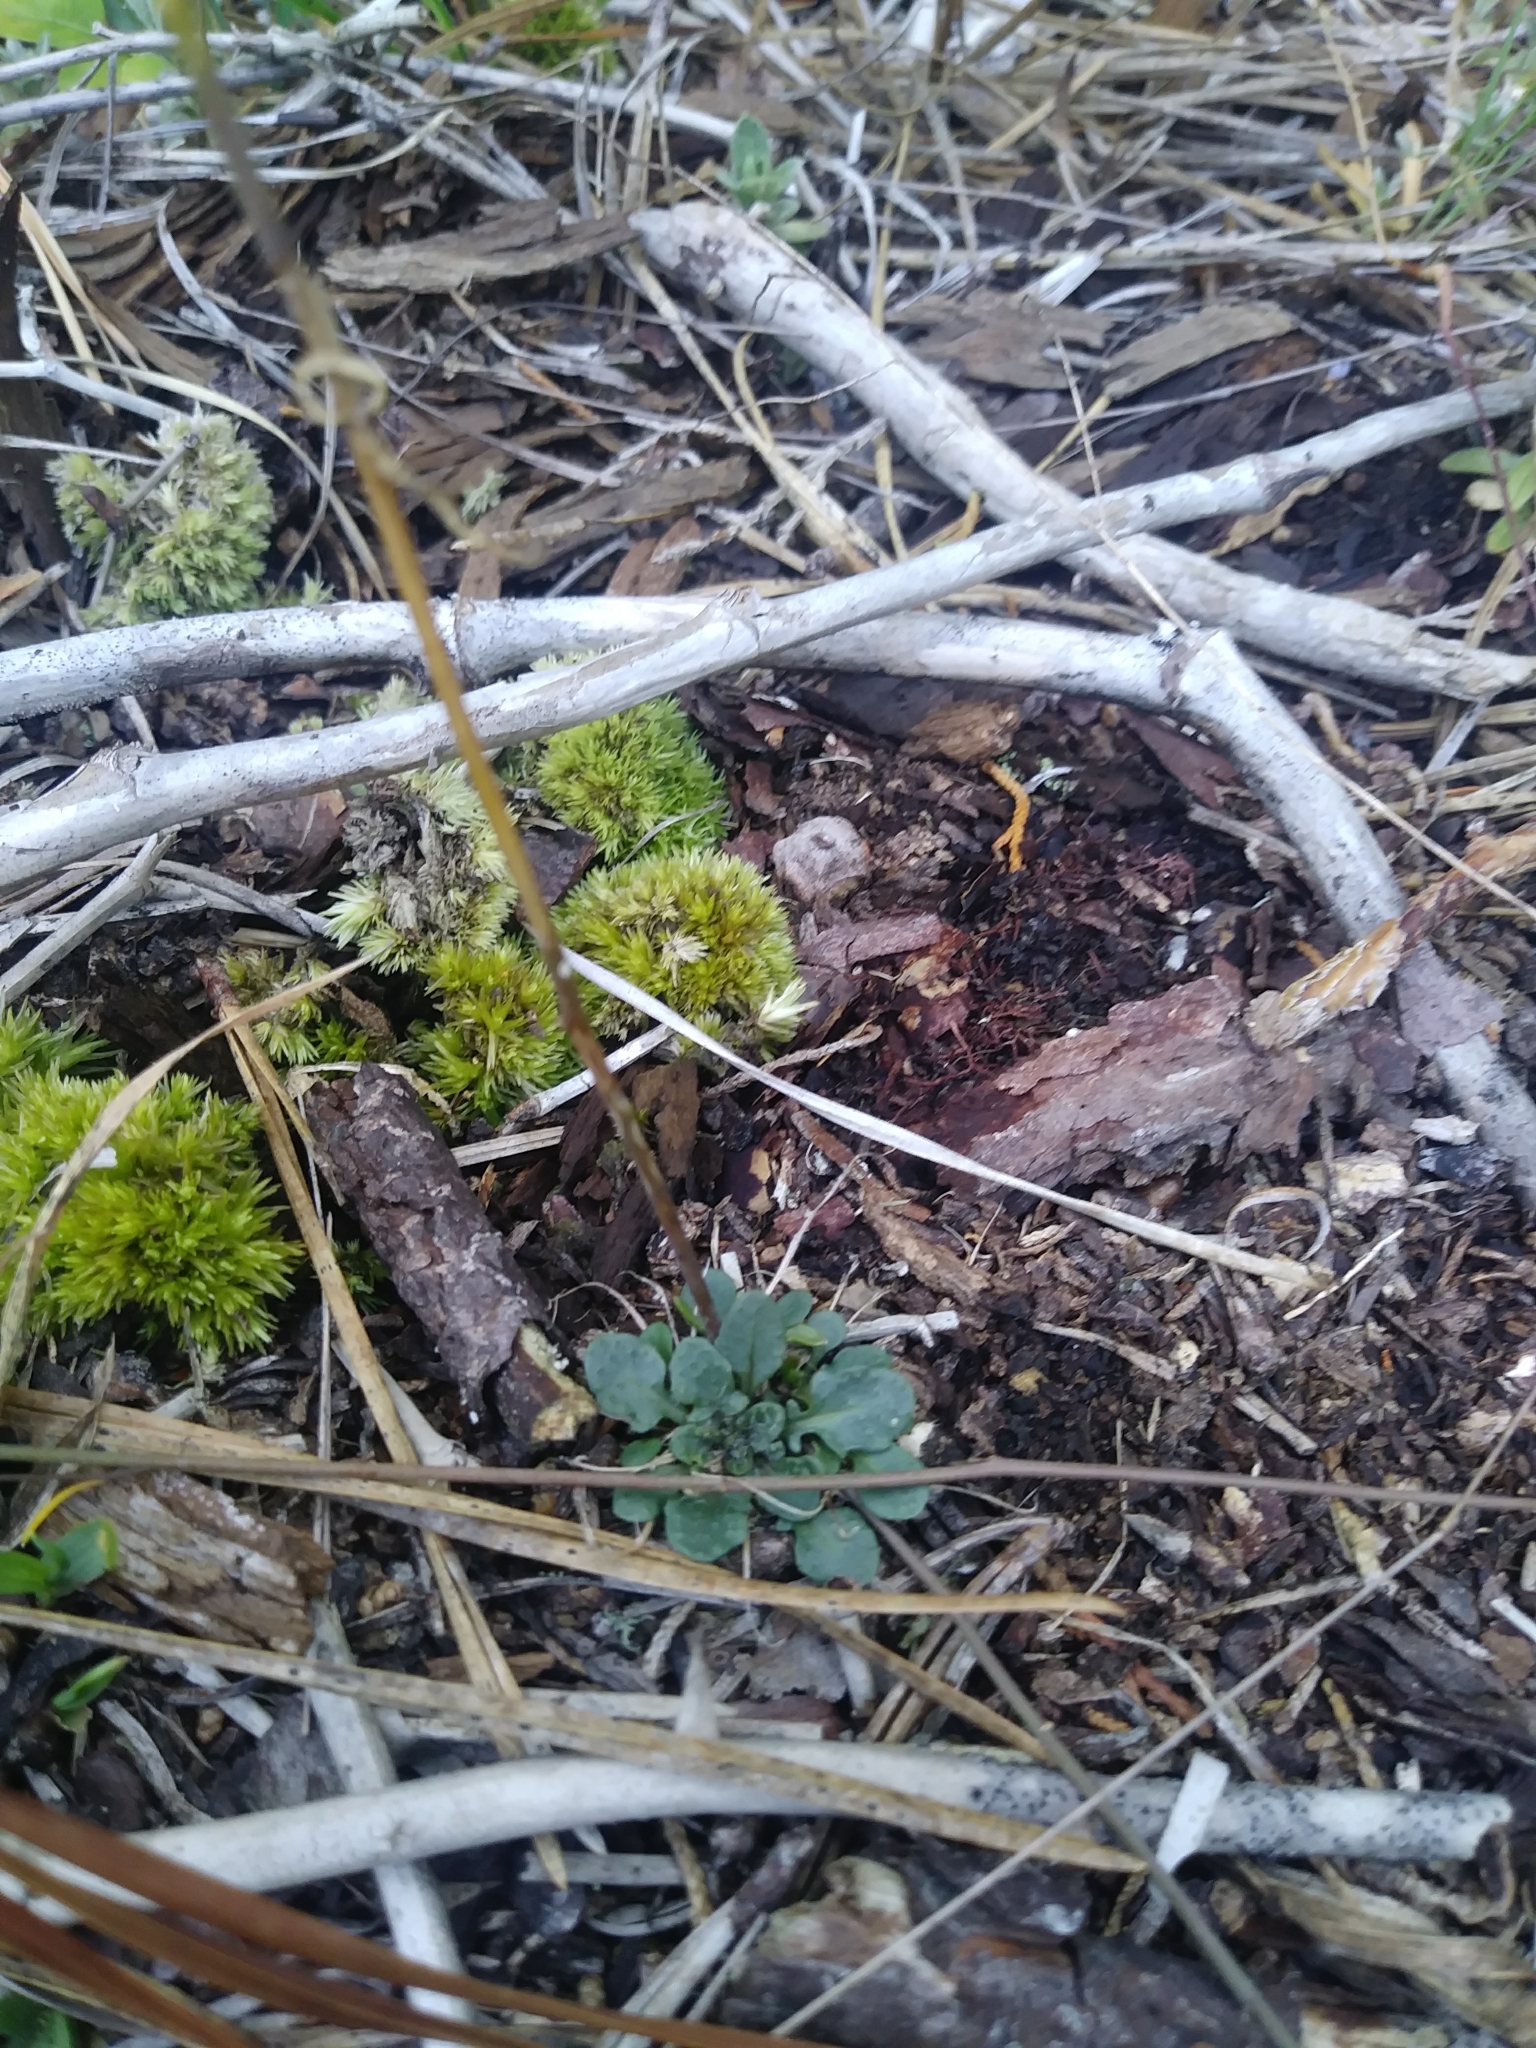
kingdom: Plantae
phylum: Tracheophyta
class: Magnoliopsida
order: Brassicales
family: Brassicaceae
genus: Arabidopsis
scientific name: Arabidopsis lyrata
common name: Lyrate rockcress
